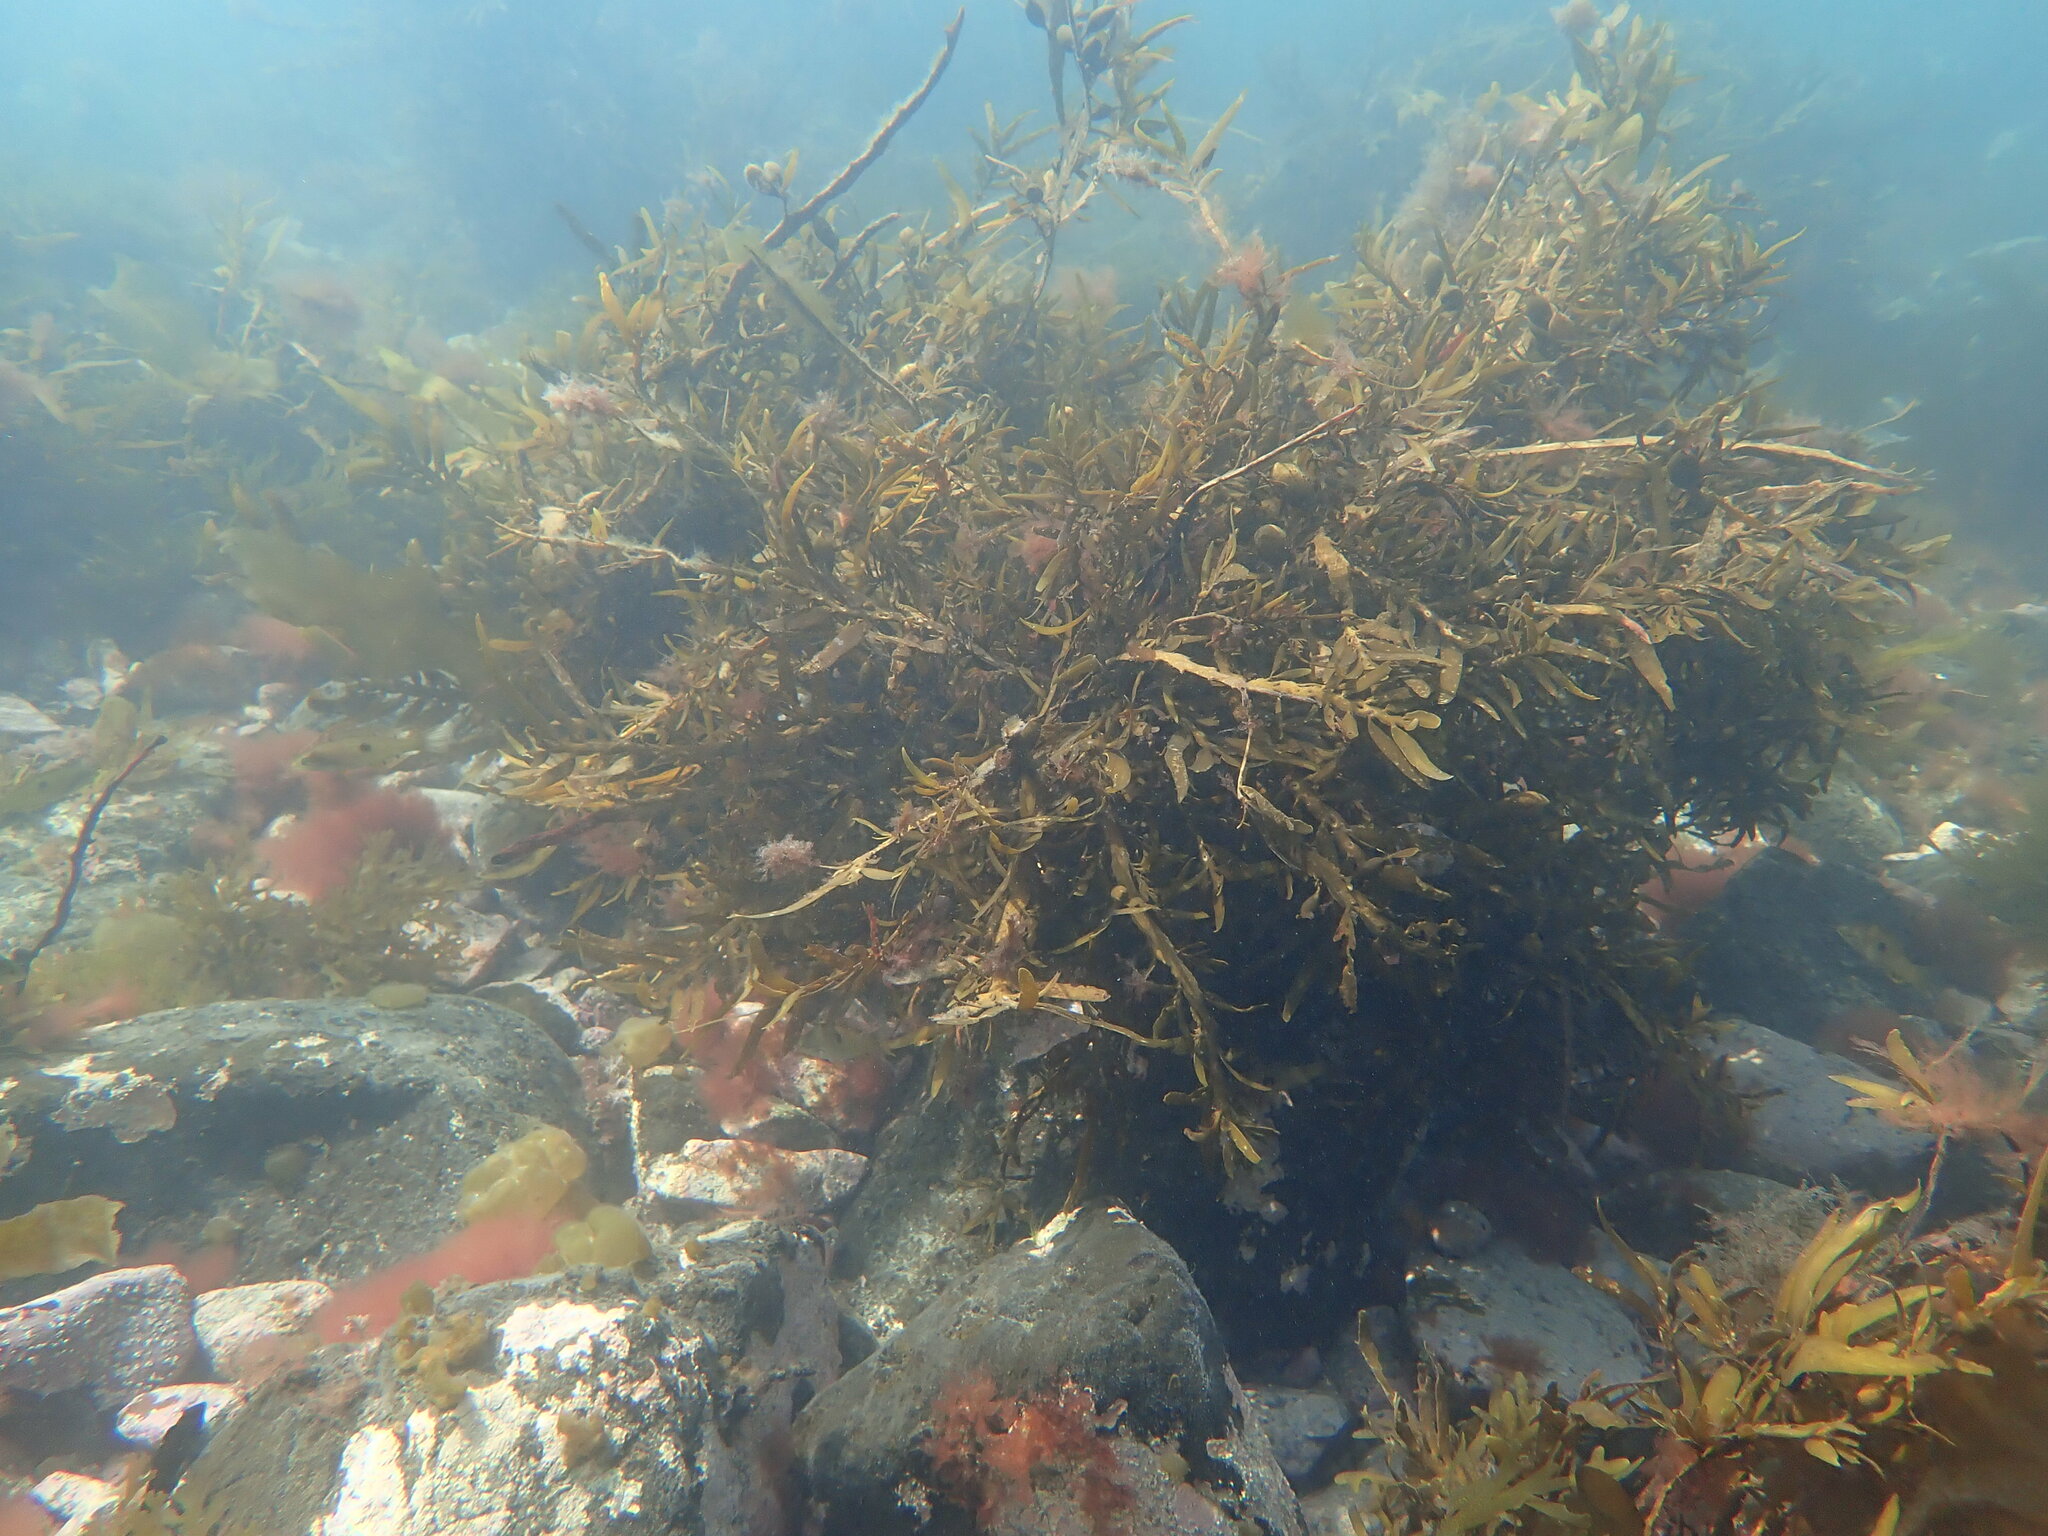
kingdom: Chromista
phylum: Ochrophyta
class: Phaeophyceae
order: Fucales
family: Sargassaceae
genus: Carpophyllum
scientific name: Carpophyllum maschalocarpum
